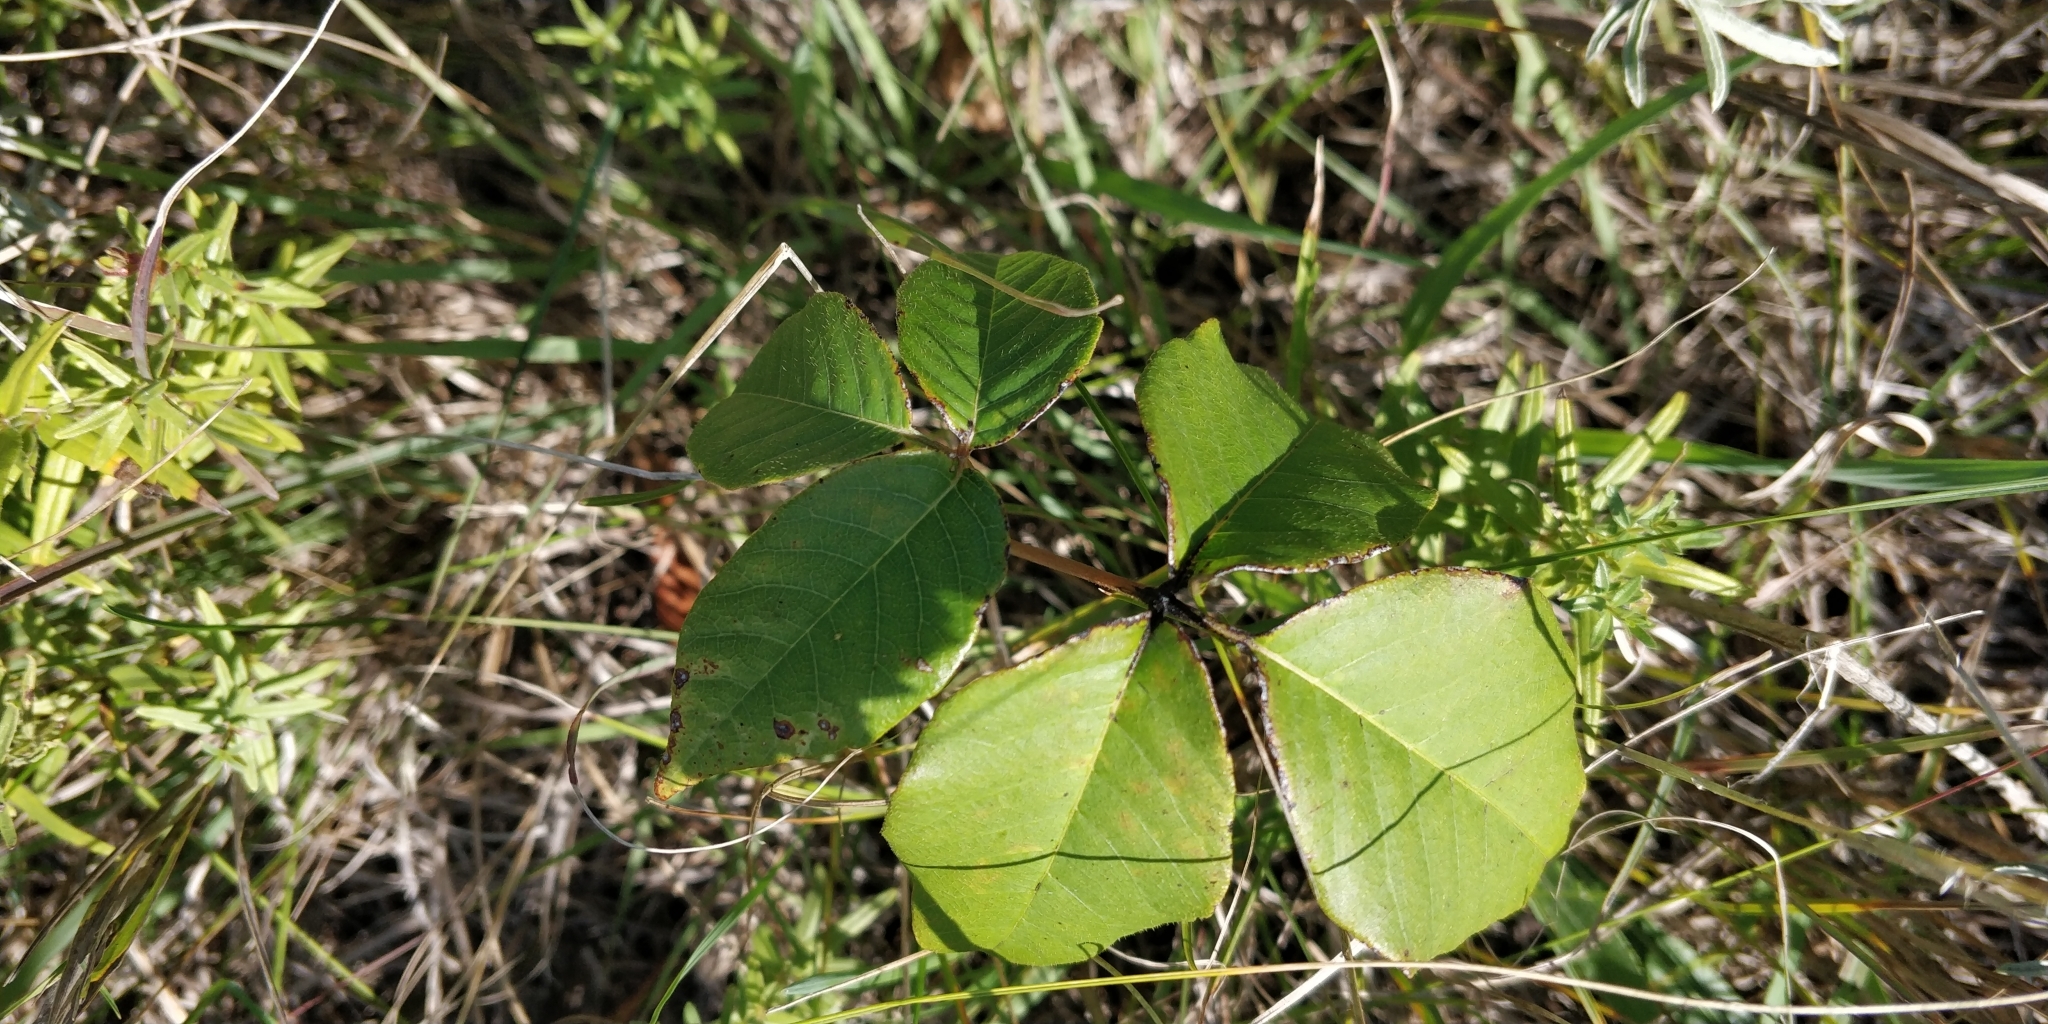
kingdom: Plantae
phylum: Tracheophyta
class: Magnoliopsida
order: Sapindales
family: Anacardiaceae
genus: Toxicodendron
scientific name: Toxicodendron rydbergii
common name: Rydberg's poison-ivy
